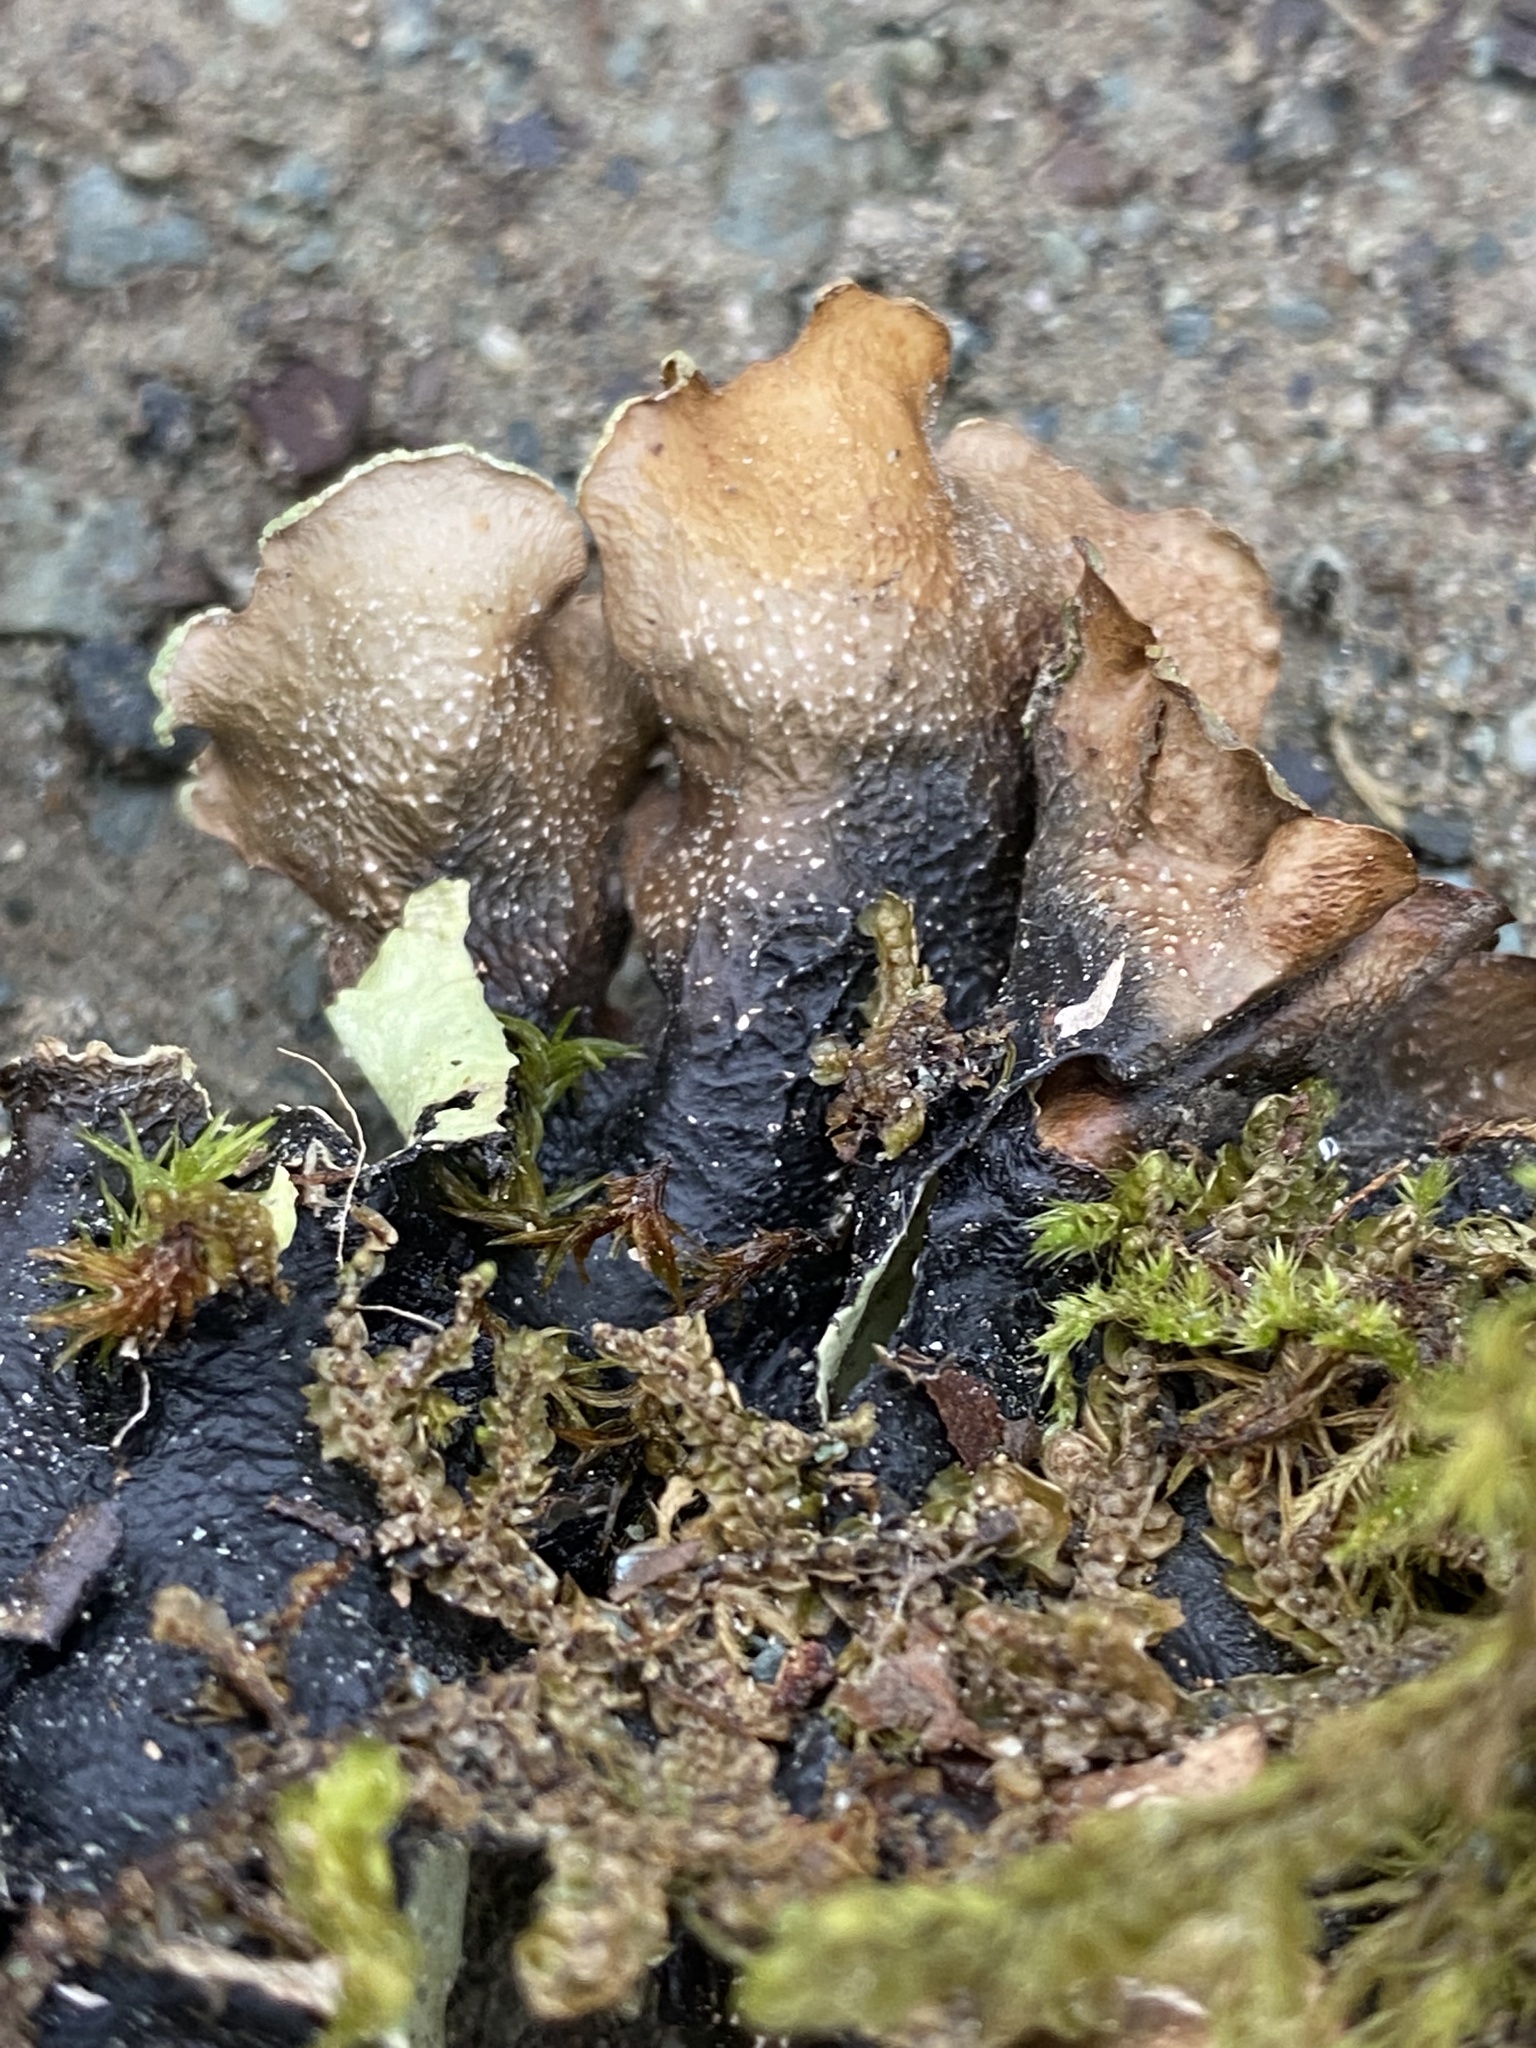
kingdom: Fungi
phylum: Ascomycota
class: Lecanoromycetes
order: Lecanorales
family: Parmeliaceae
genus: Cetrelia
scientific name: Cetrelia cetrarioides
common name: Speckled iceland lichen
